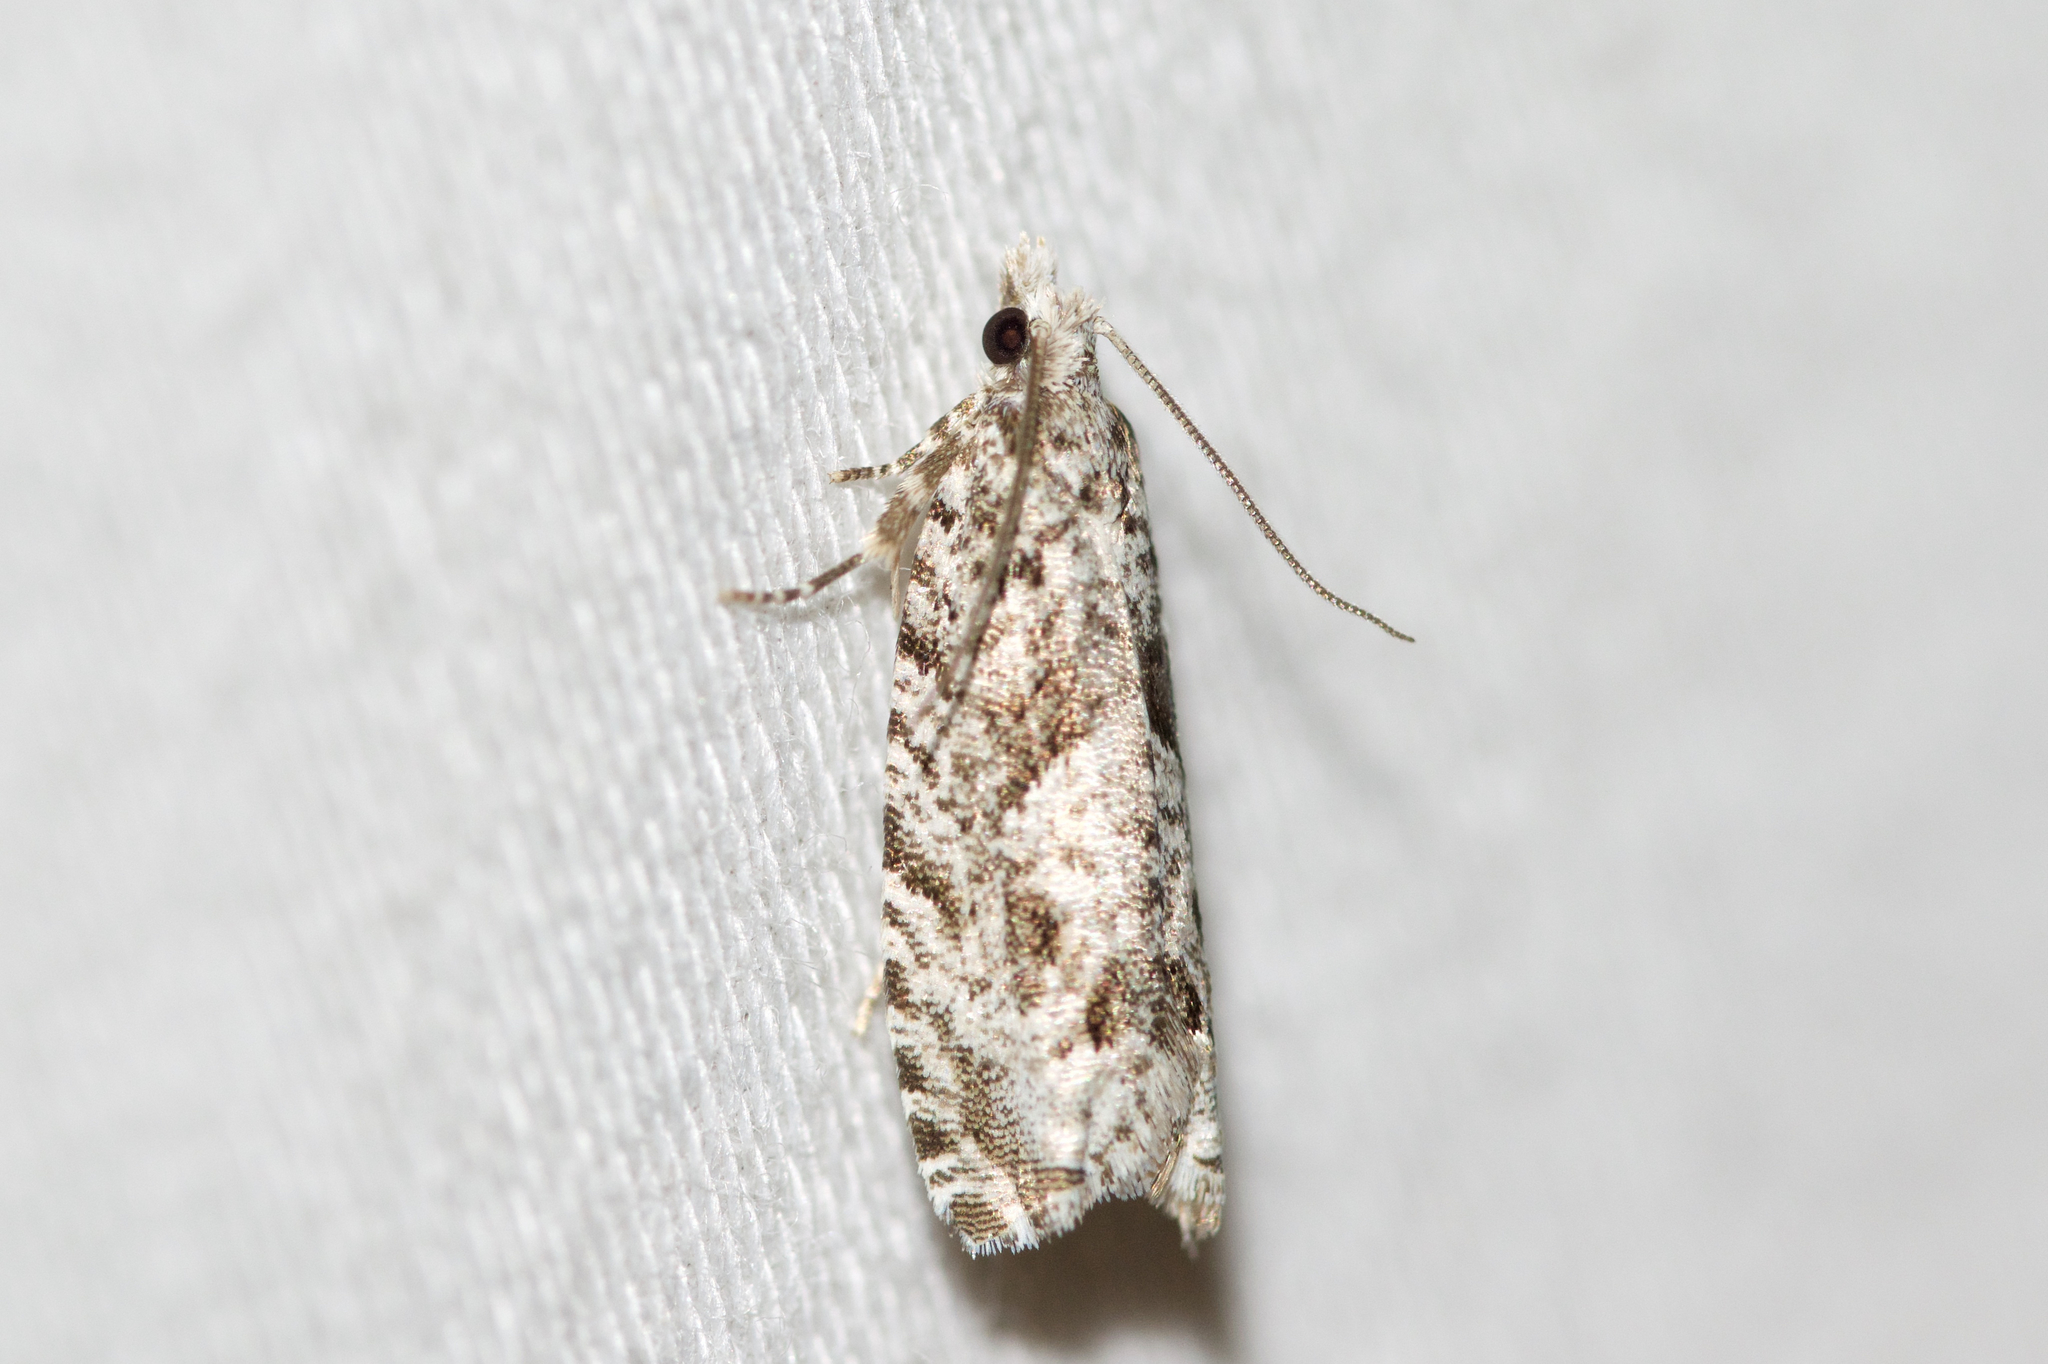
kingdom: Animalia
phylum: Arthropoda
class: Insecta
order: Lepidoptera
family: Tortricidae
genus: Catastega
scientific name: Catastega aceriella
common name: Maple trumpet skeletonizer moth
